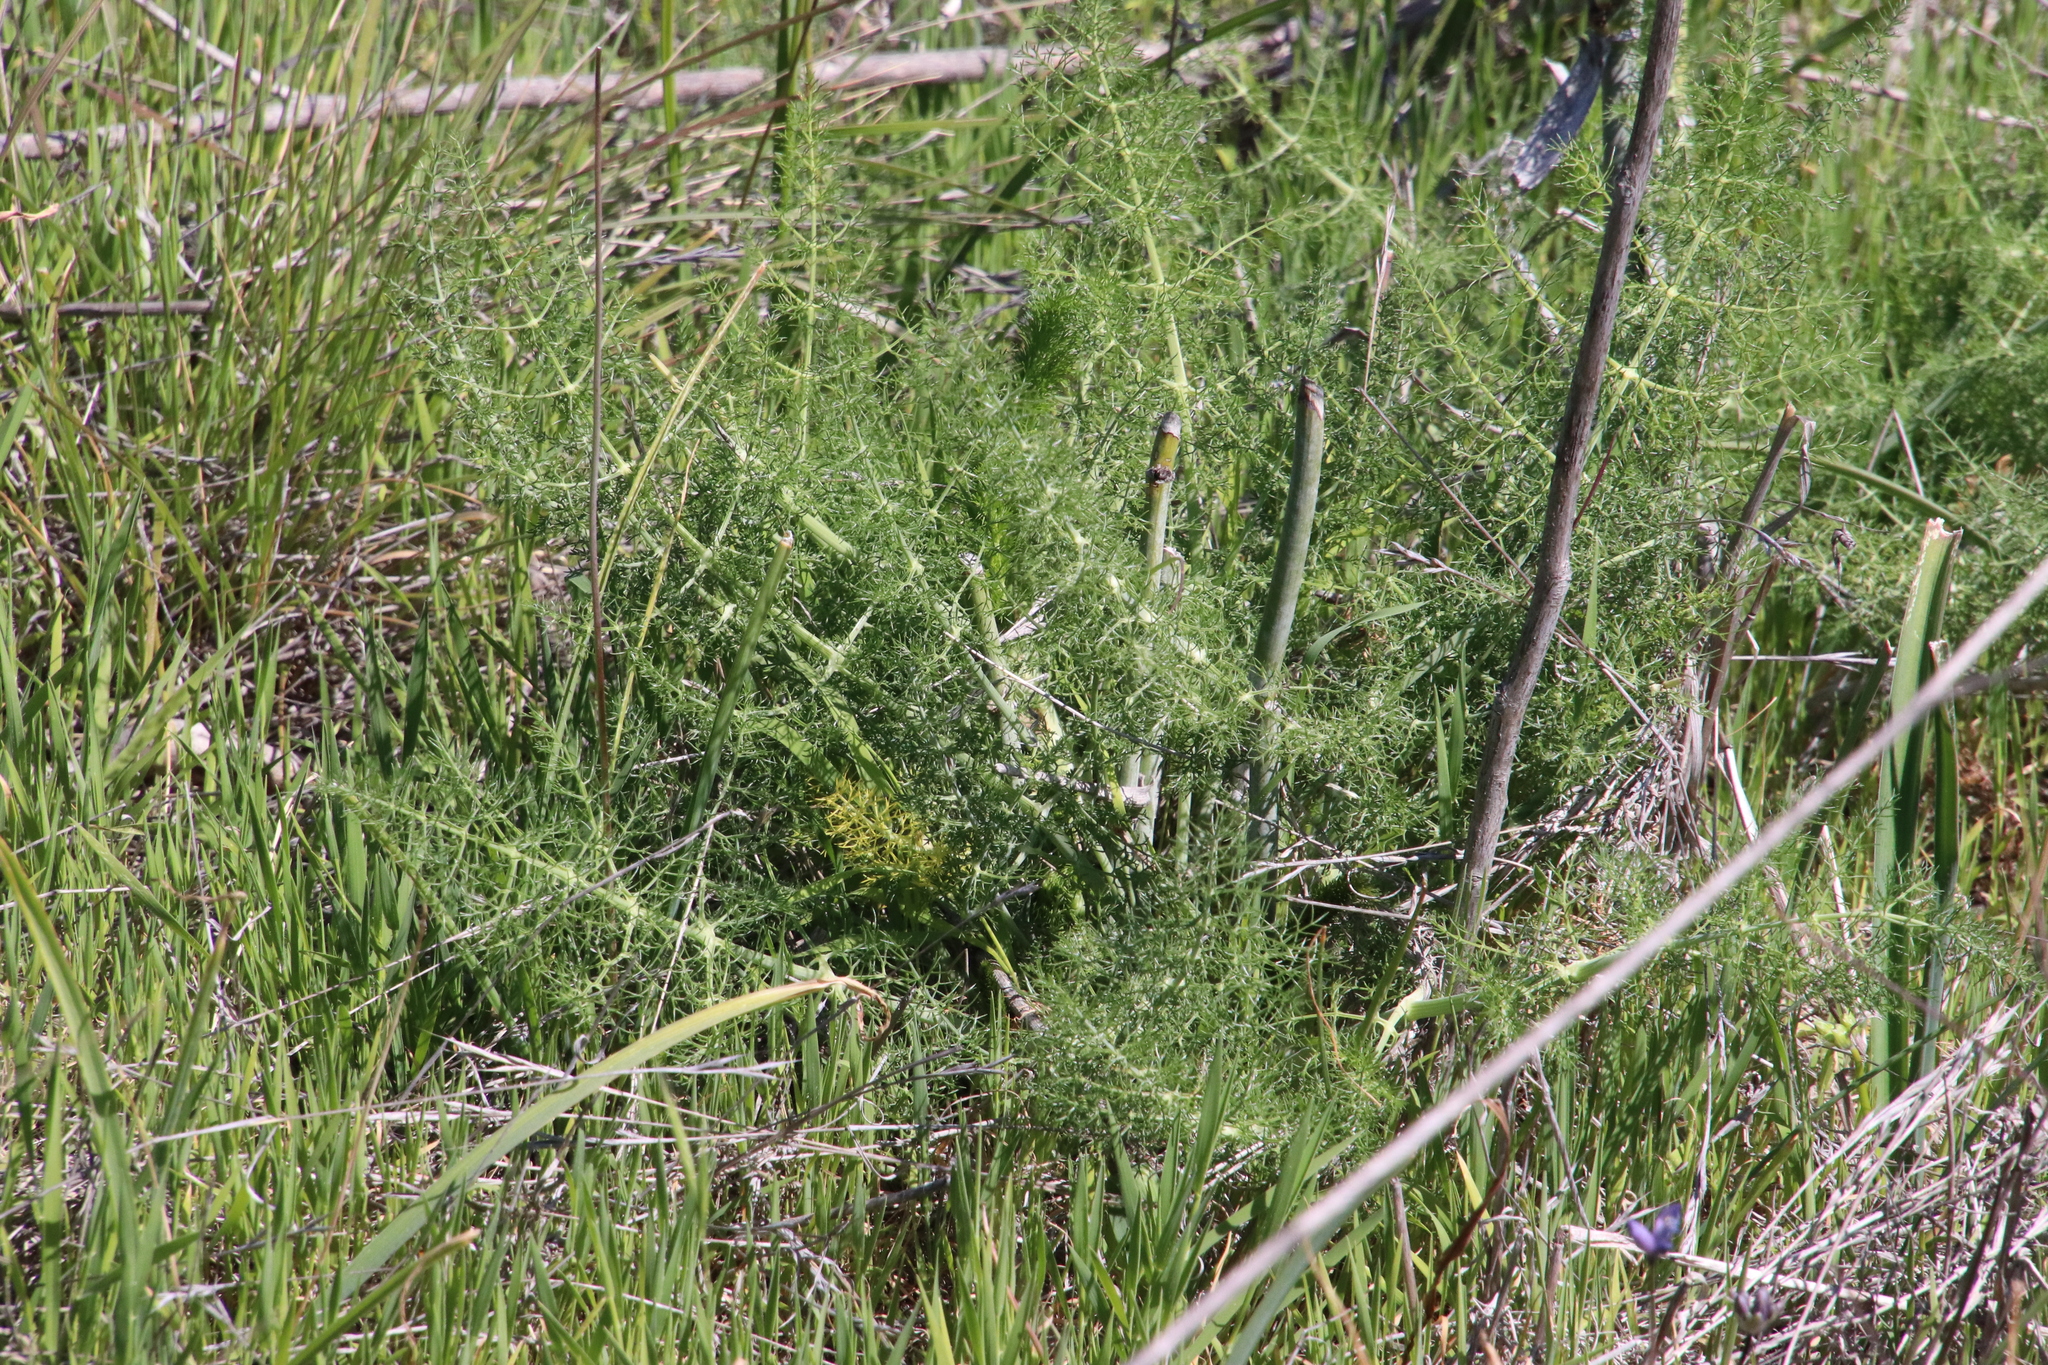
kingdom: Plantae
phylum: Tracheophyta
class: Magnoliopsida
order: Apiales
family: Apiaceae
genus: Foeniculum
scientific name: Foeniculum vulgare
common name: Fennel
